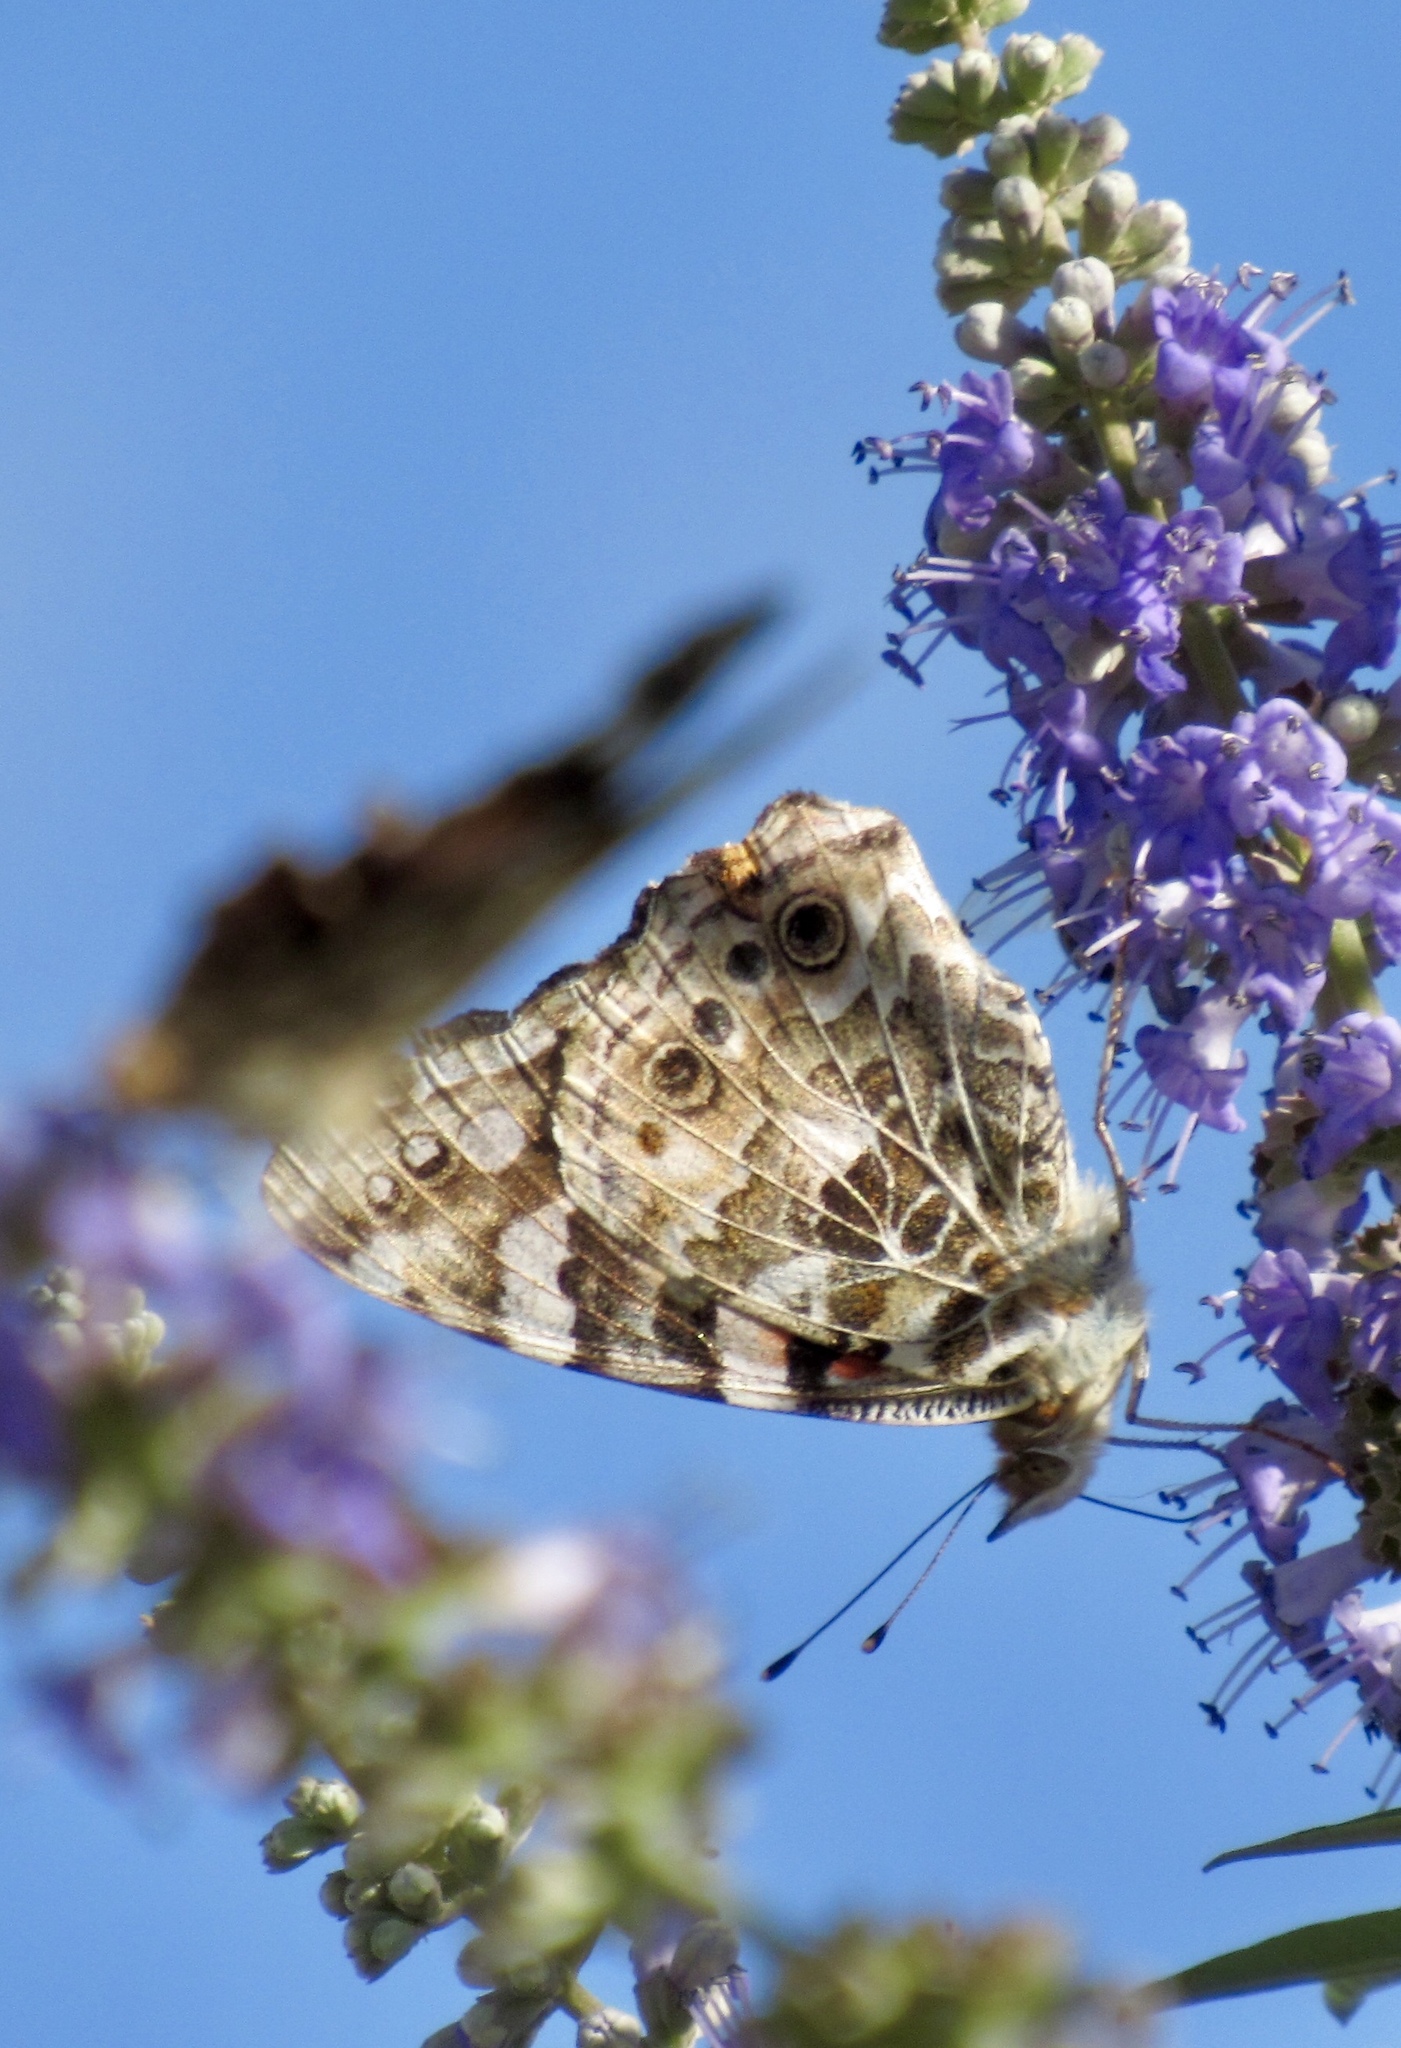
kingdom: Animalia
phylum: Arthropoda
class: Insecta
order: Lepidoptera
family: Nymphalidae
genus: Vanessa
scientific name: Vanessa cardui
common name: Painted lady
